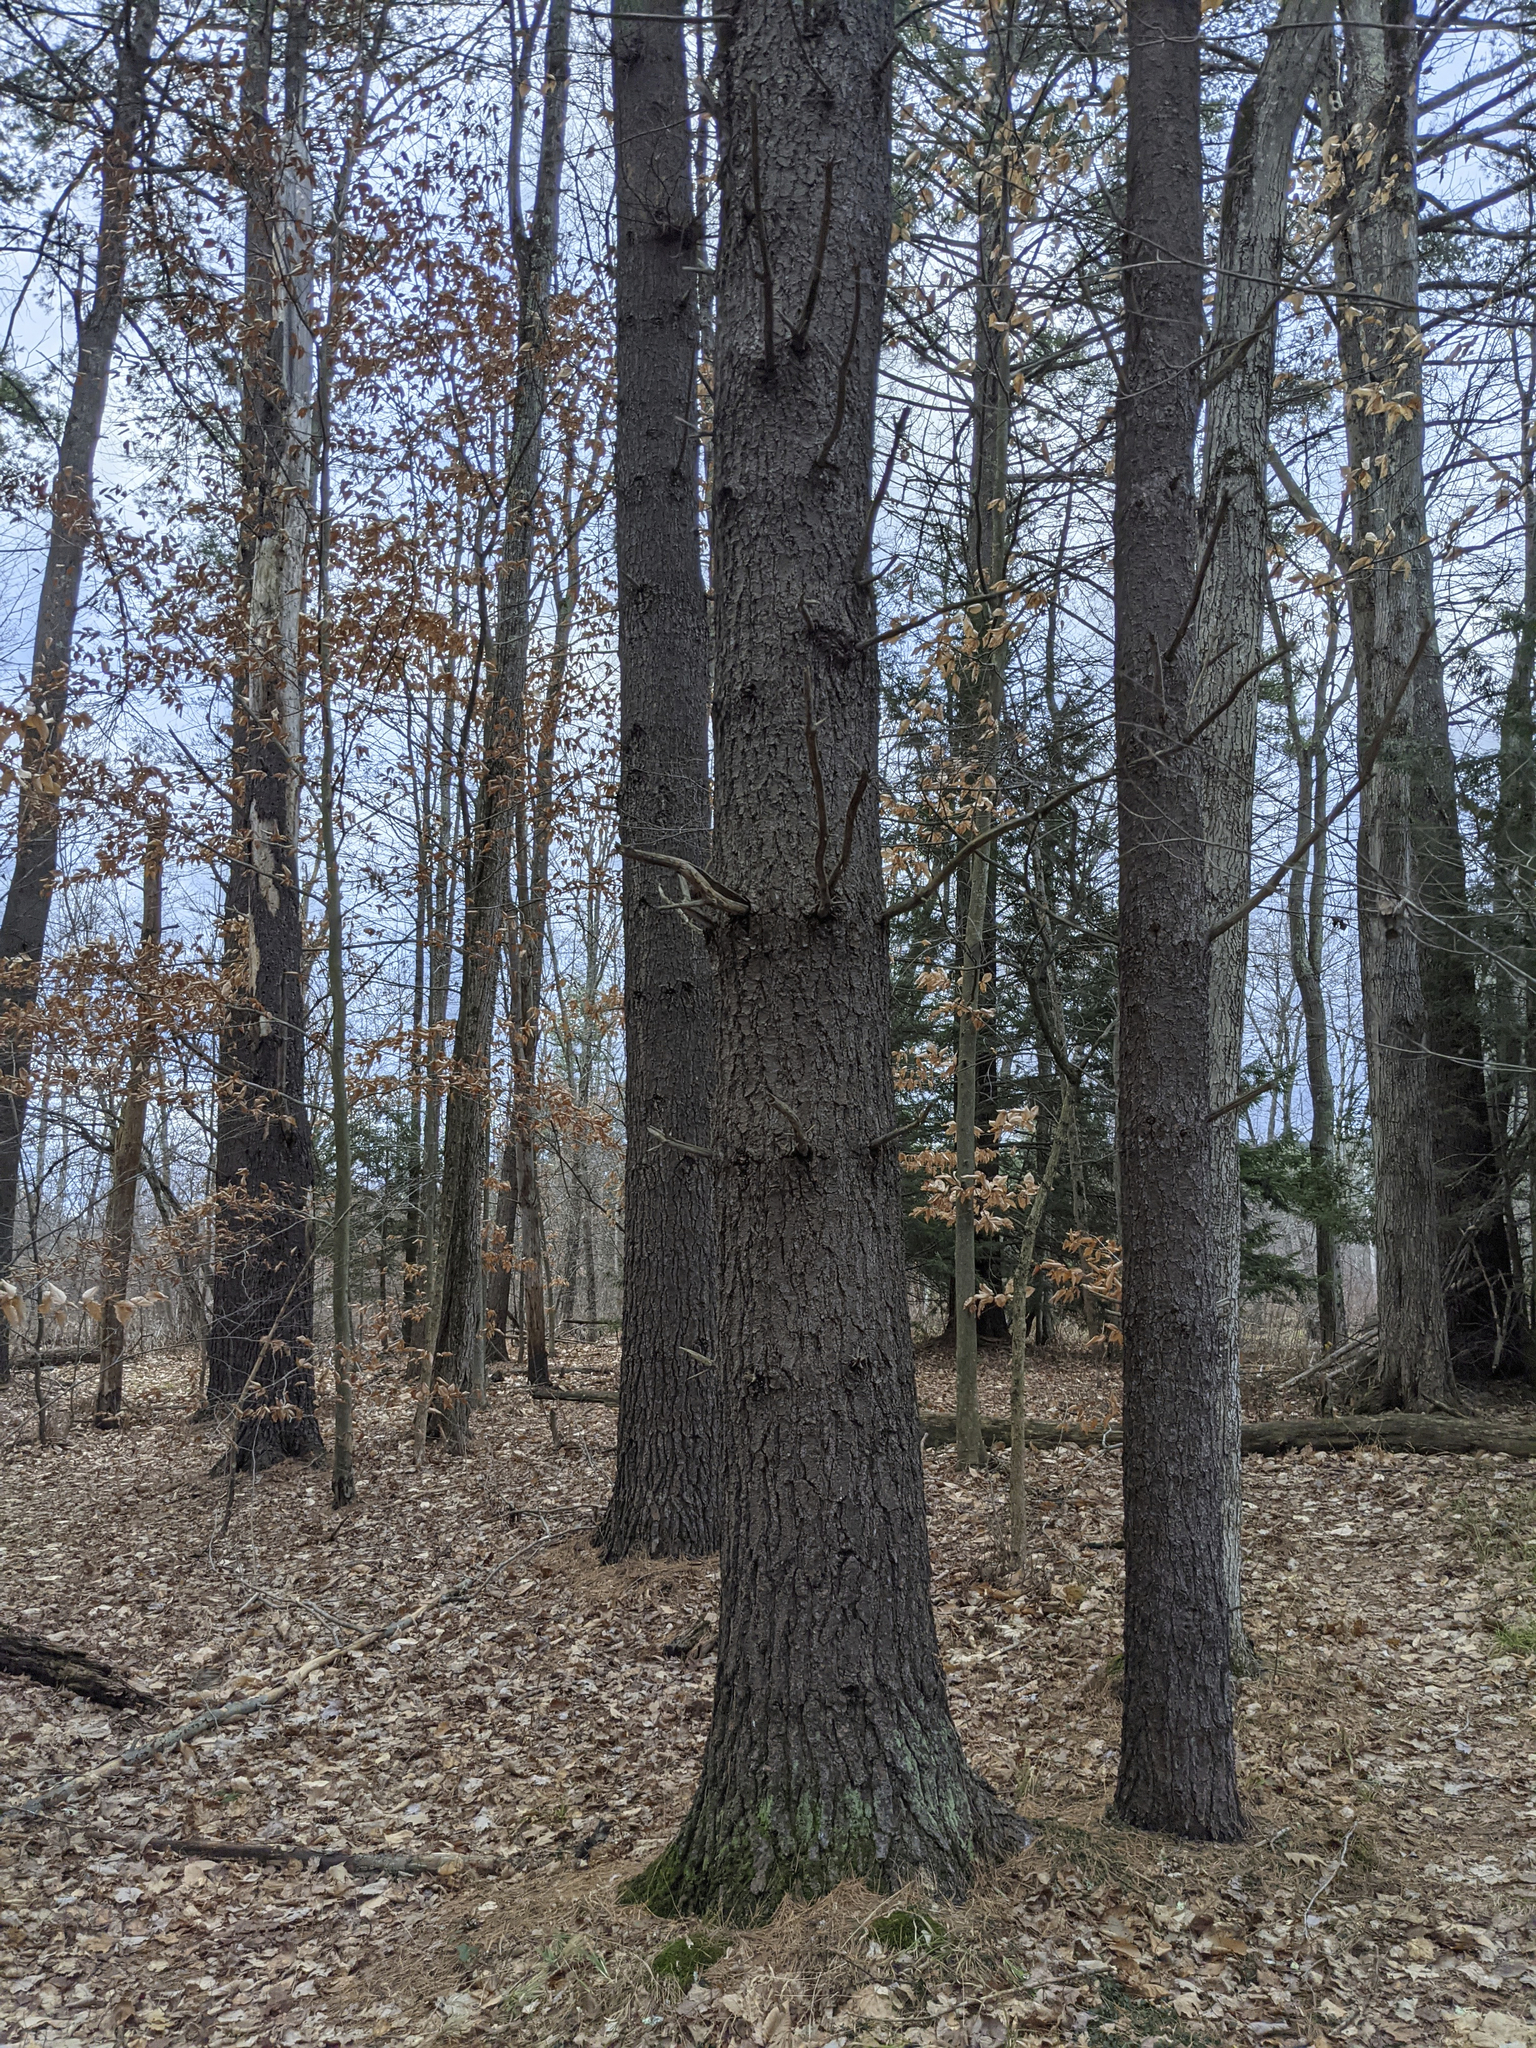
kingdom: Plantae
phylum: Tracheophyta
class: Pinopsida
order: Pinales
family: Pinaceae
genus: Pinus
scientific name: Pinus strobus
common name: Weymouth pine
